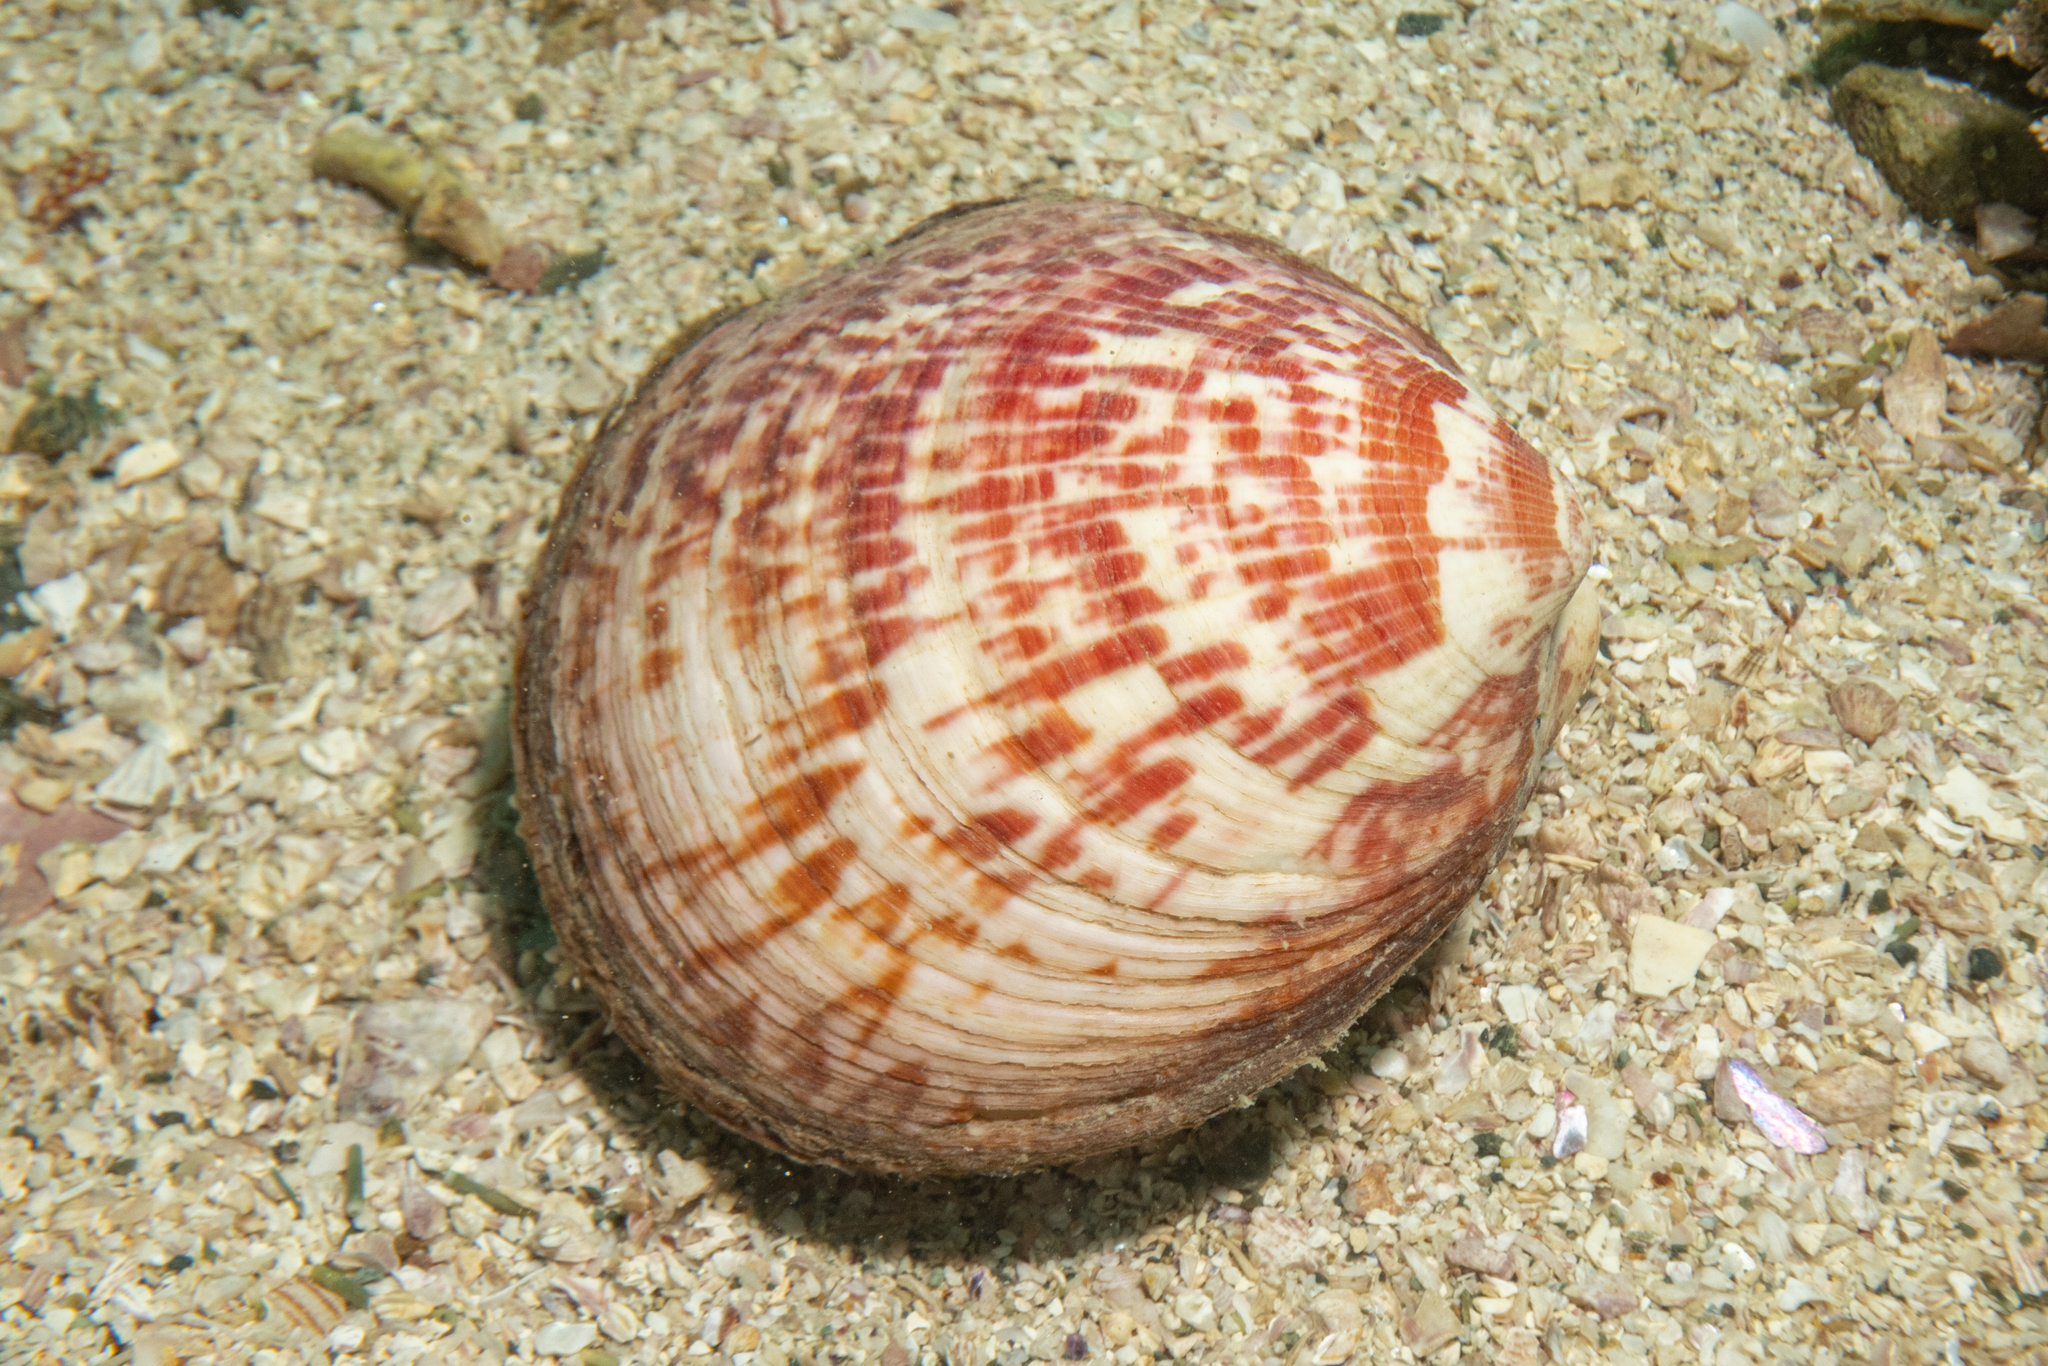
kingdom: Animalia
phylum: Mollusca
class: Bivalvia
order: Arcida
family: Glycymerididae
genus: Tucetona
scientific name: Tucetona laticostata
